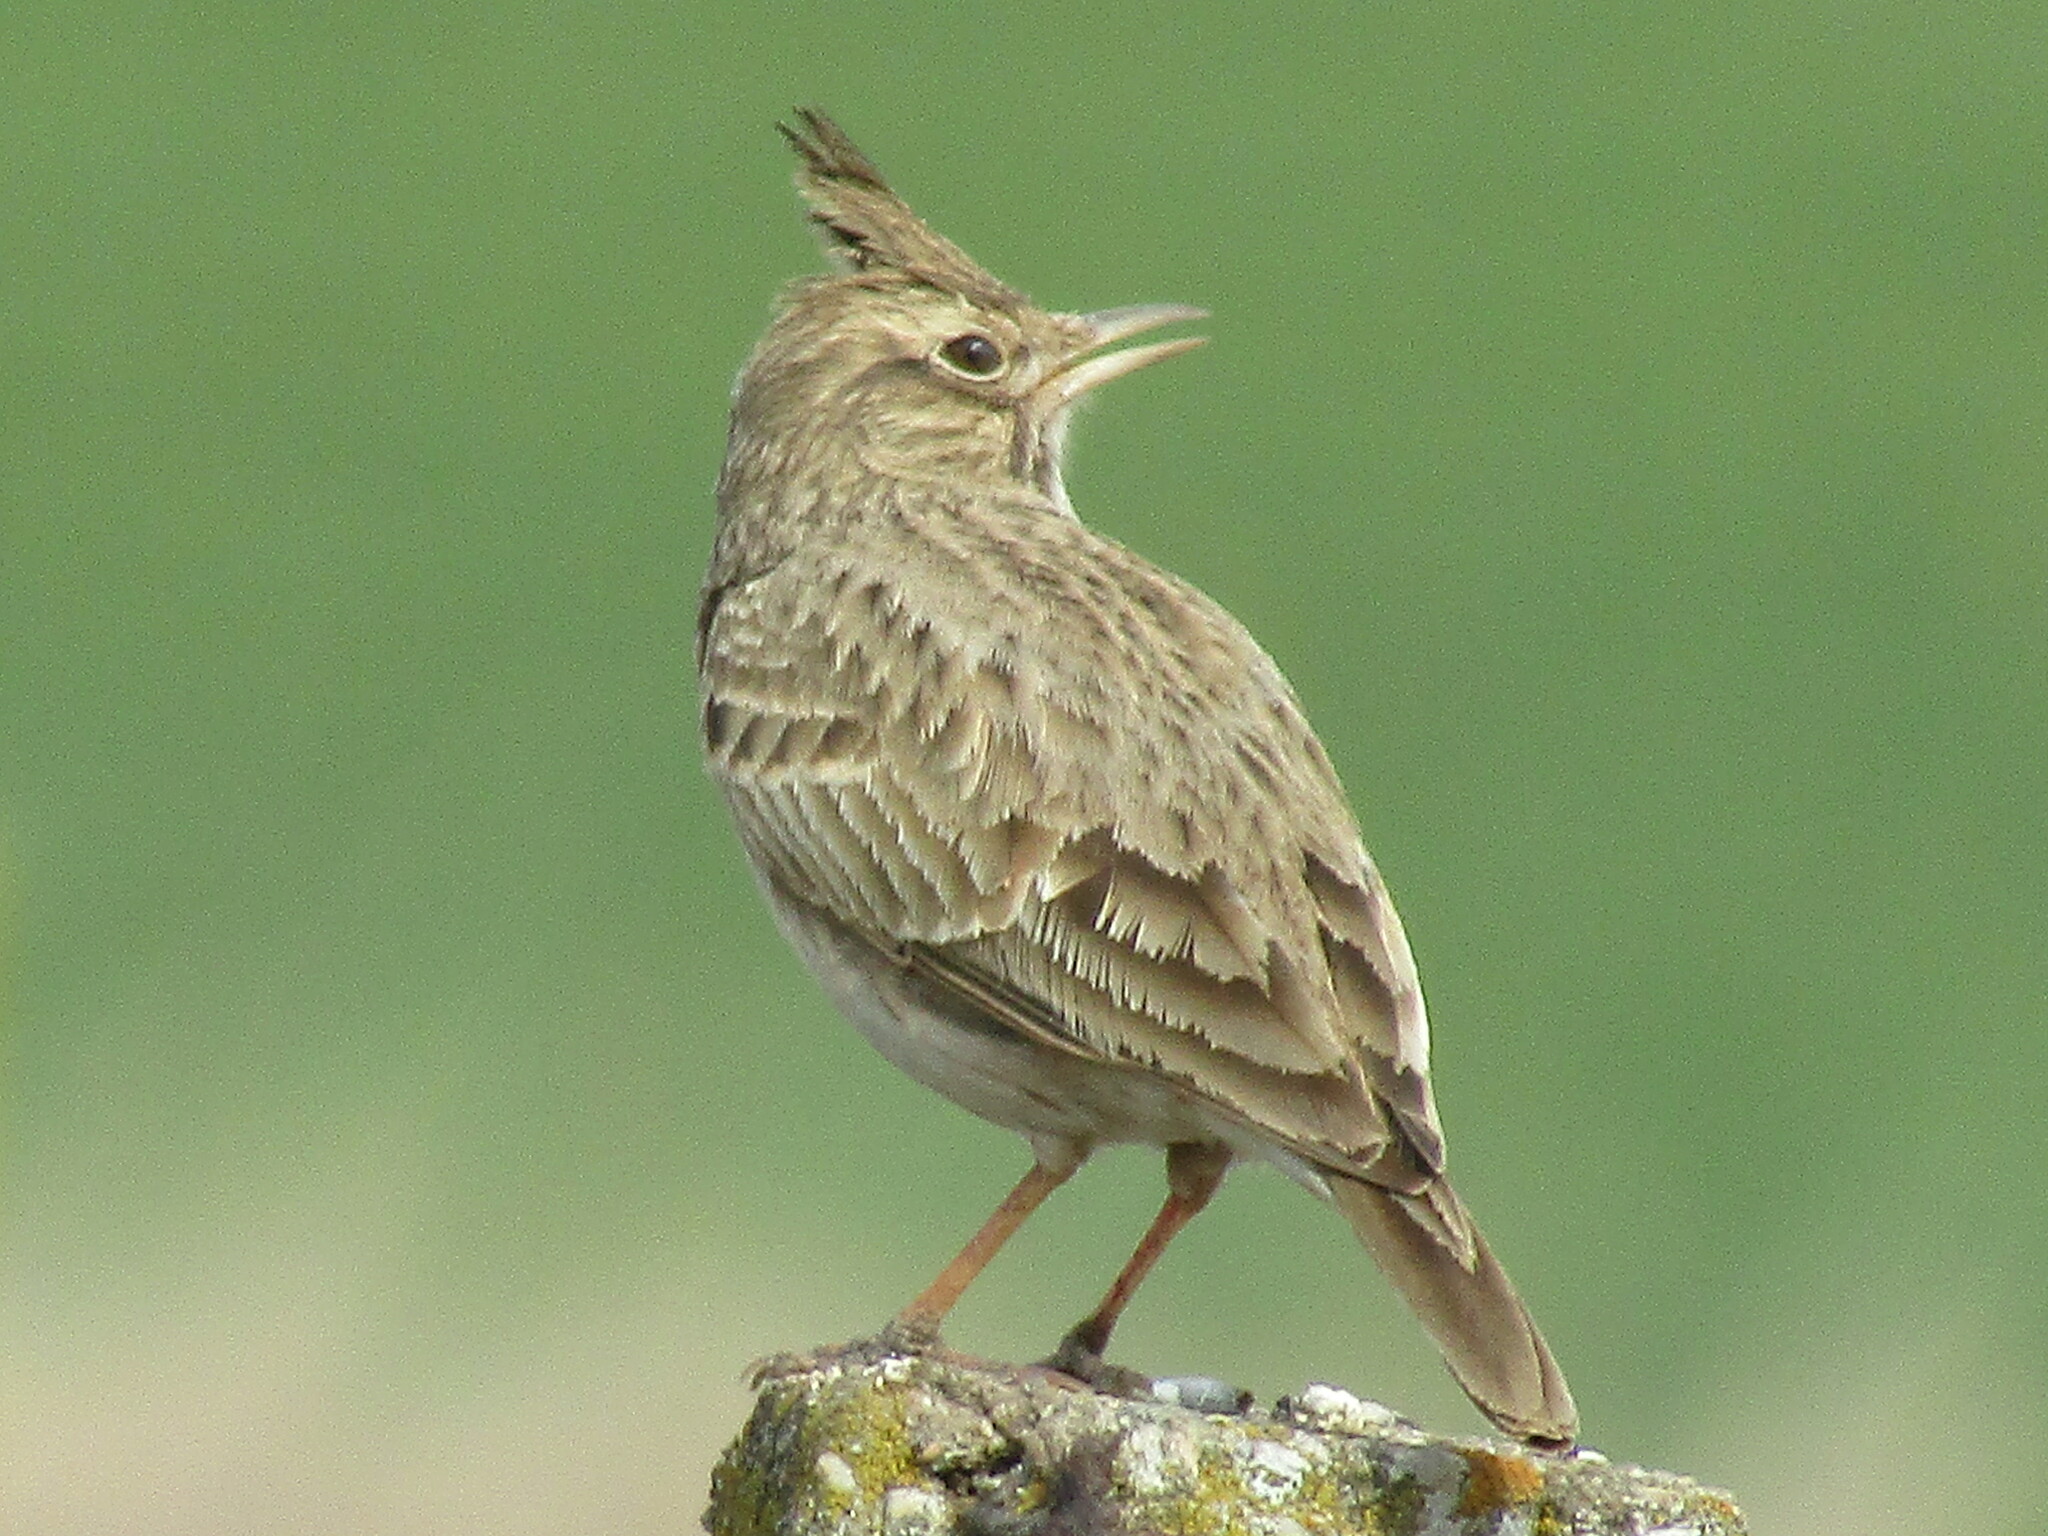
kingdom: Animalia
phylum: Chordata
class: Aves
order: Passeriformes
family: Alaudidae
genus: Galerida
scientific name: Galerida cristata
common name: Crested lark
